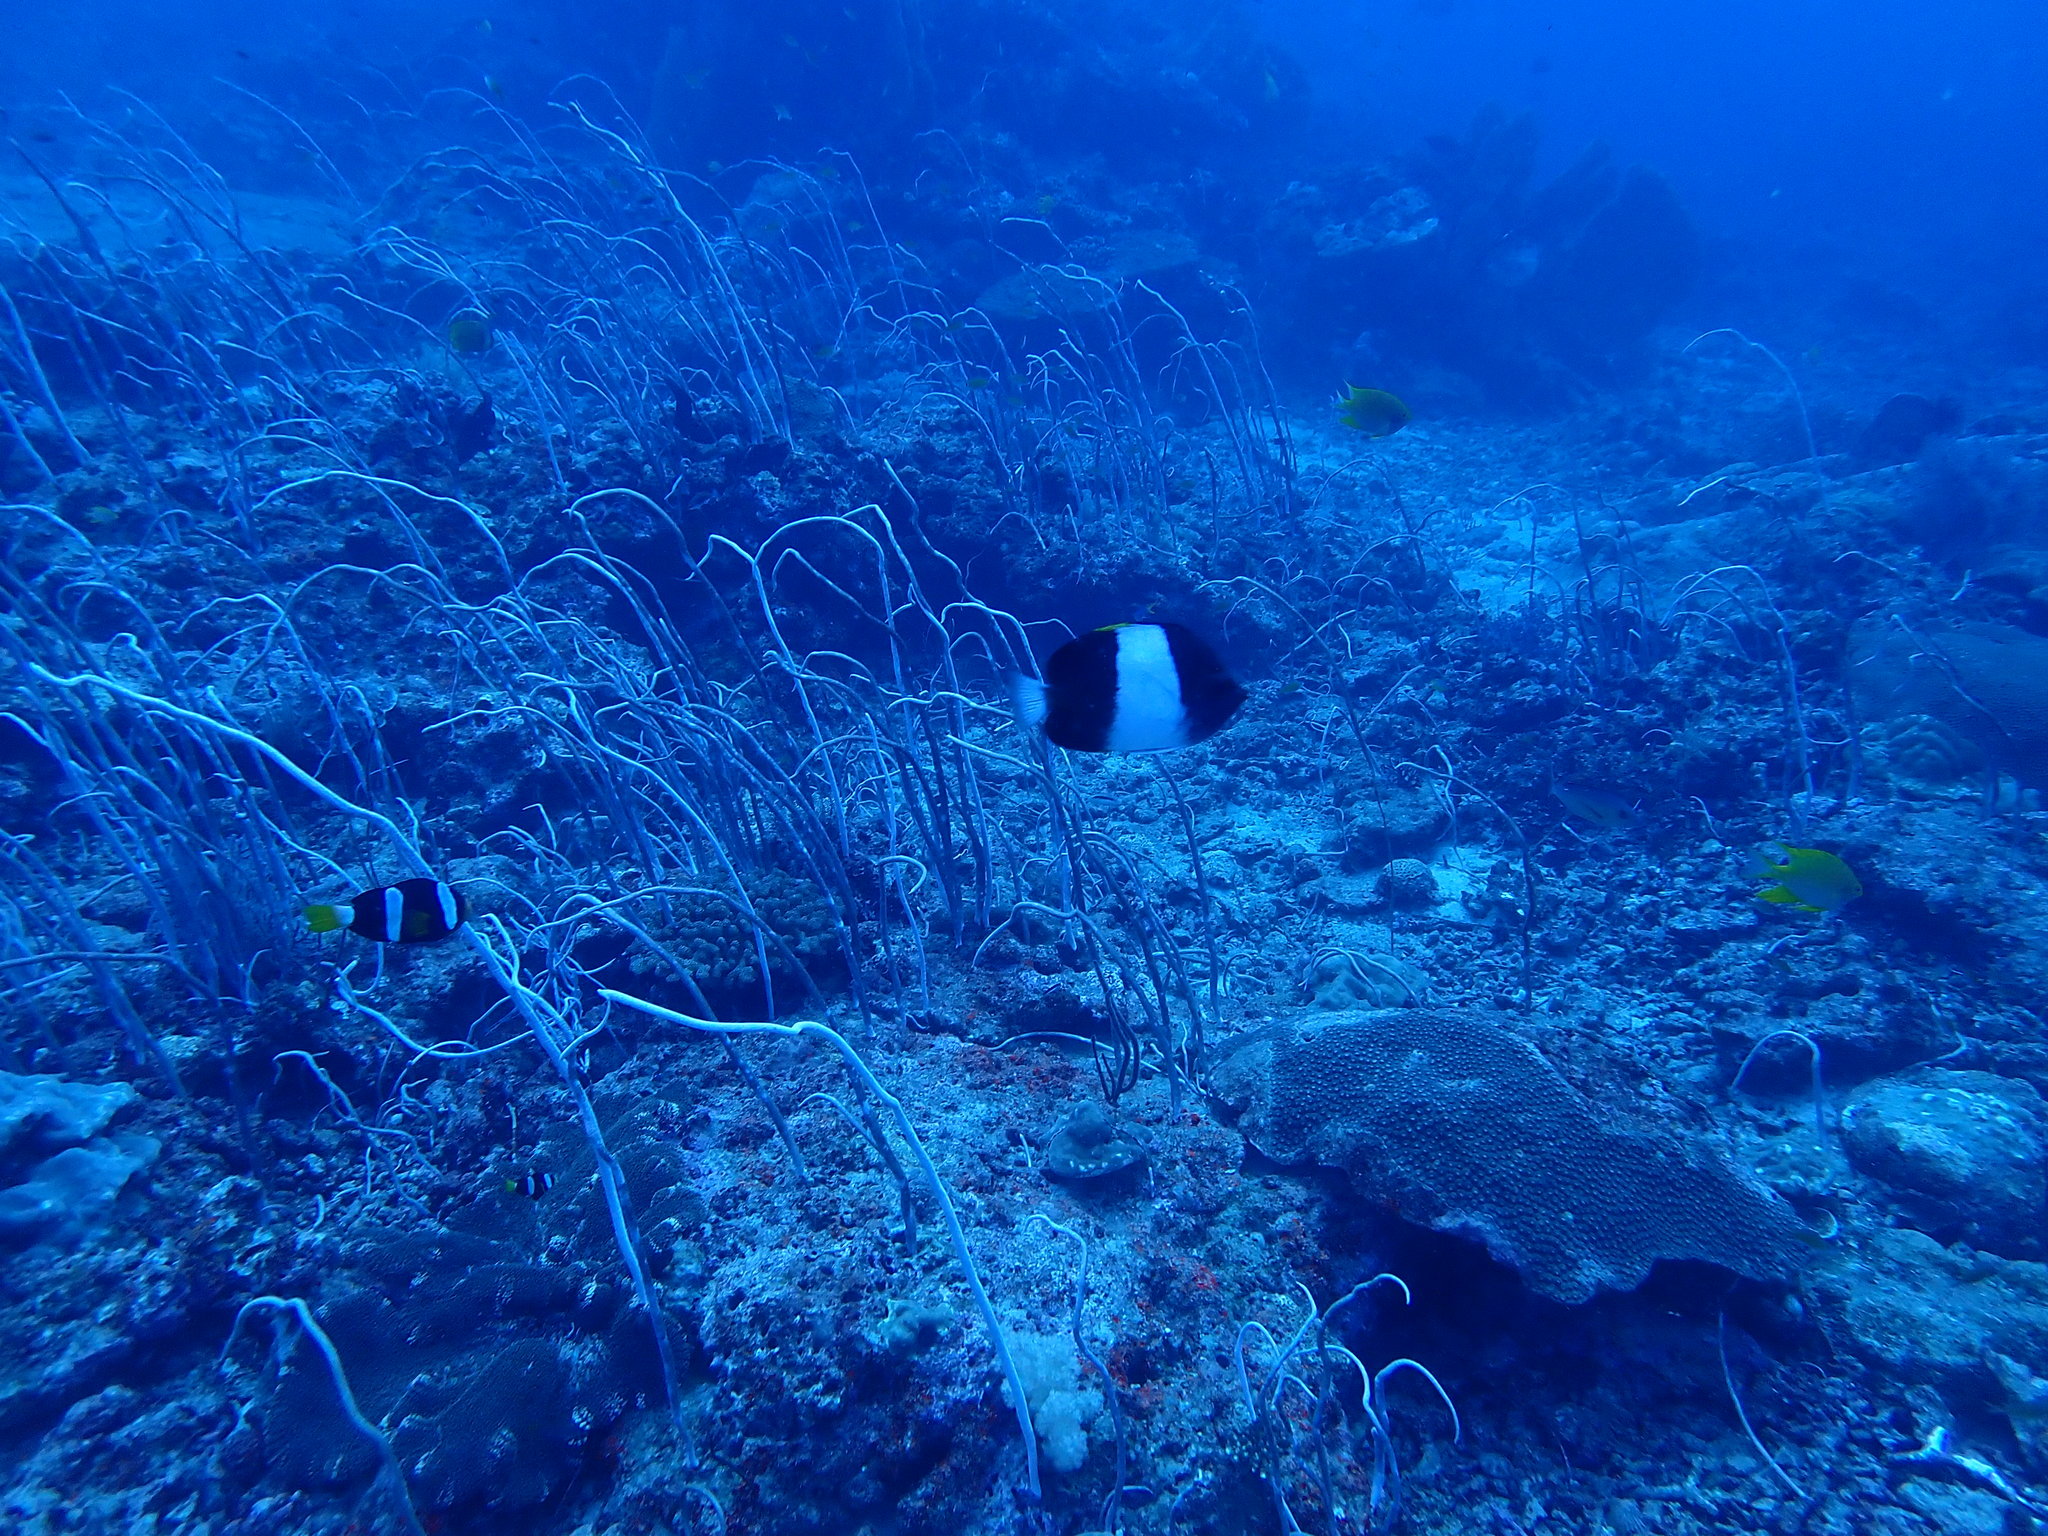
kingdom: Animalia
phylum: Chordata
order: Perciformes
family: Chaetodontidae
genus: Hemitaurichthys
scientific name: Hemitaurichthys zoster
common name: Brown-and-white butterflyfish
